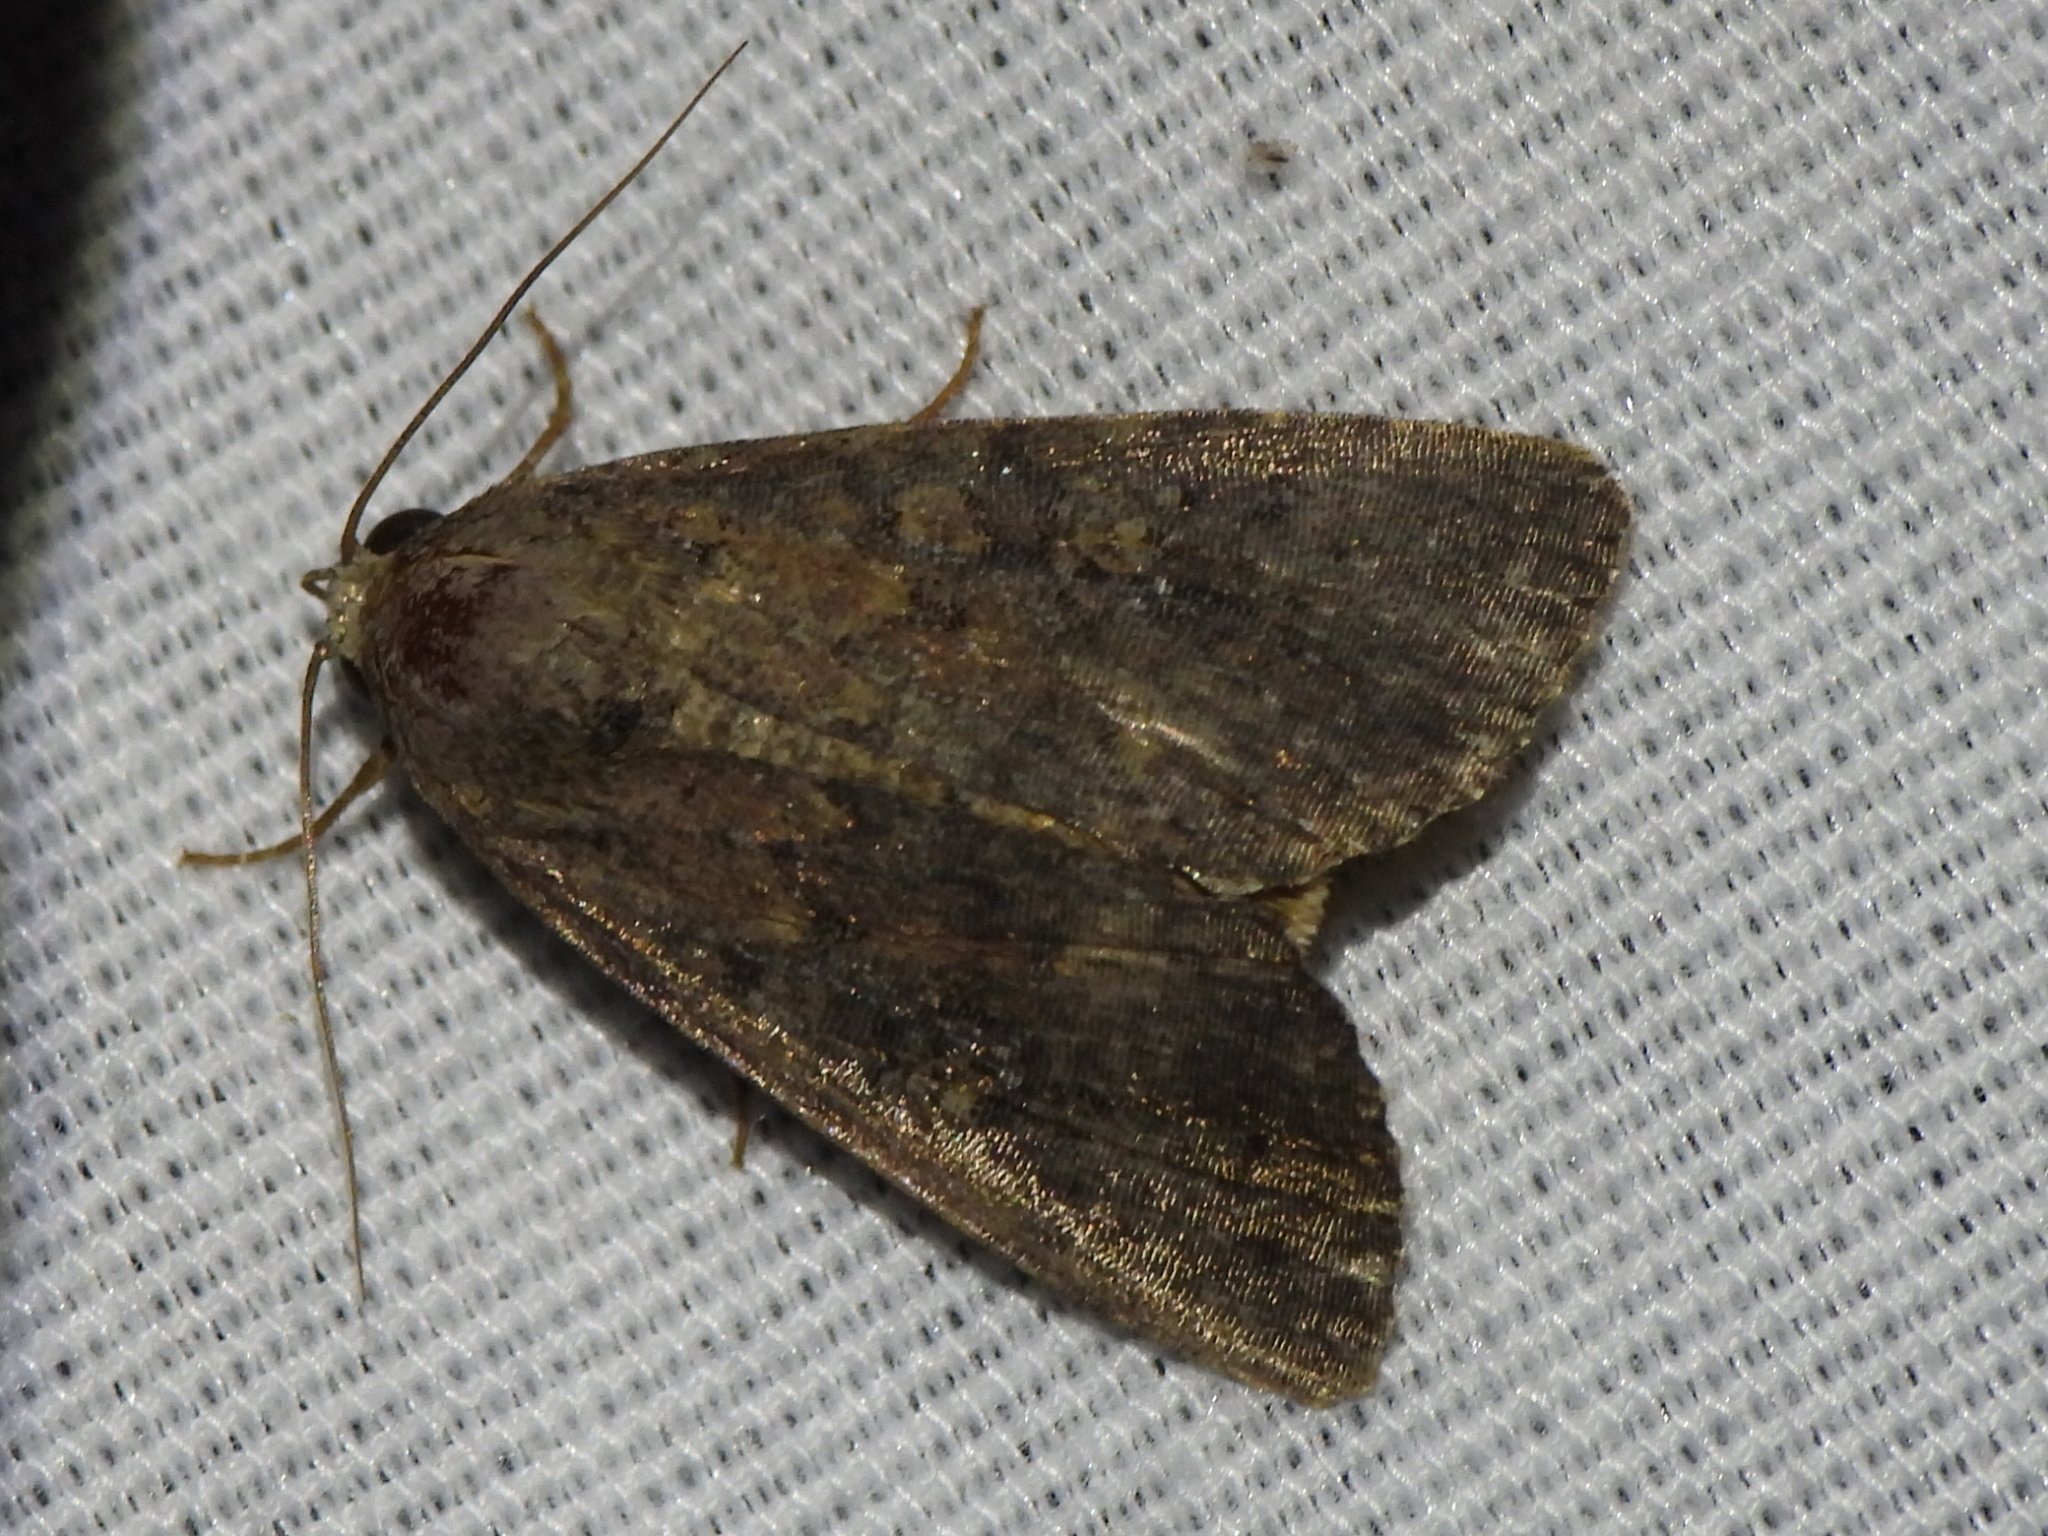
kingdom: Animalia
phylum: Arthropoda
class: Insecta
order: Lepidoptera
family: Noctuidae
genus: Condica
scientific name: Condica sutor
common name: Cobbler moth
